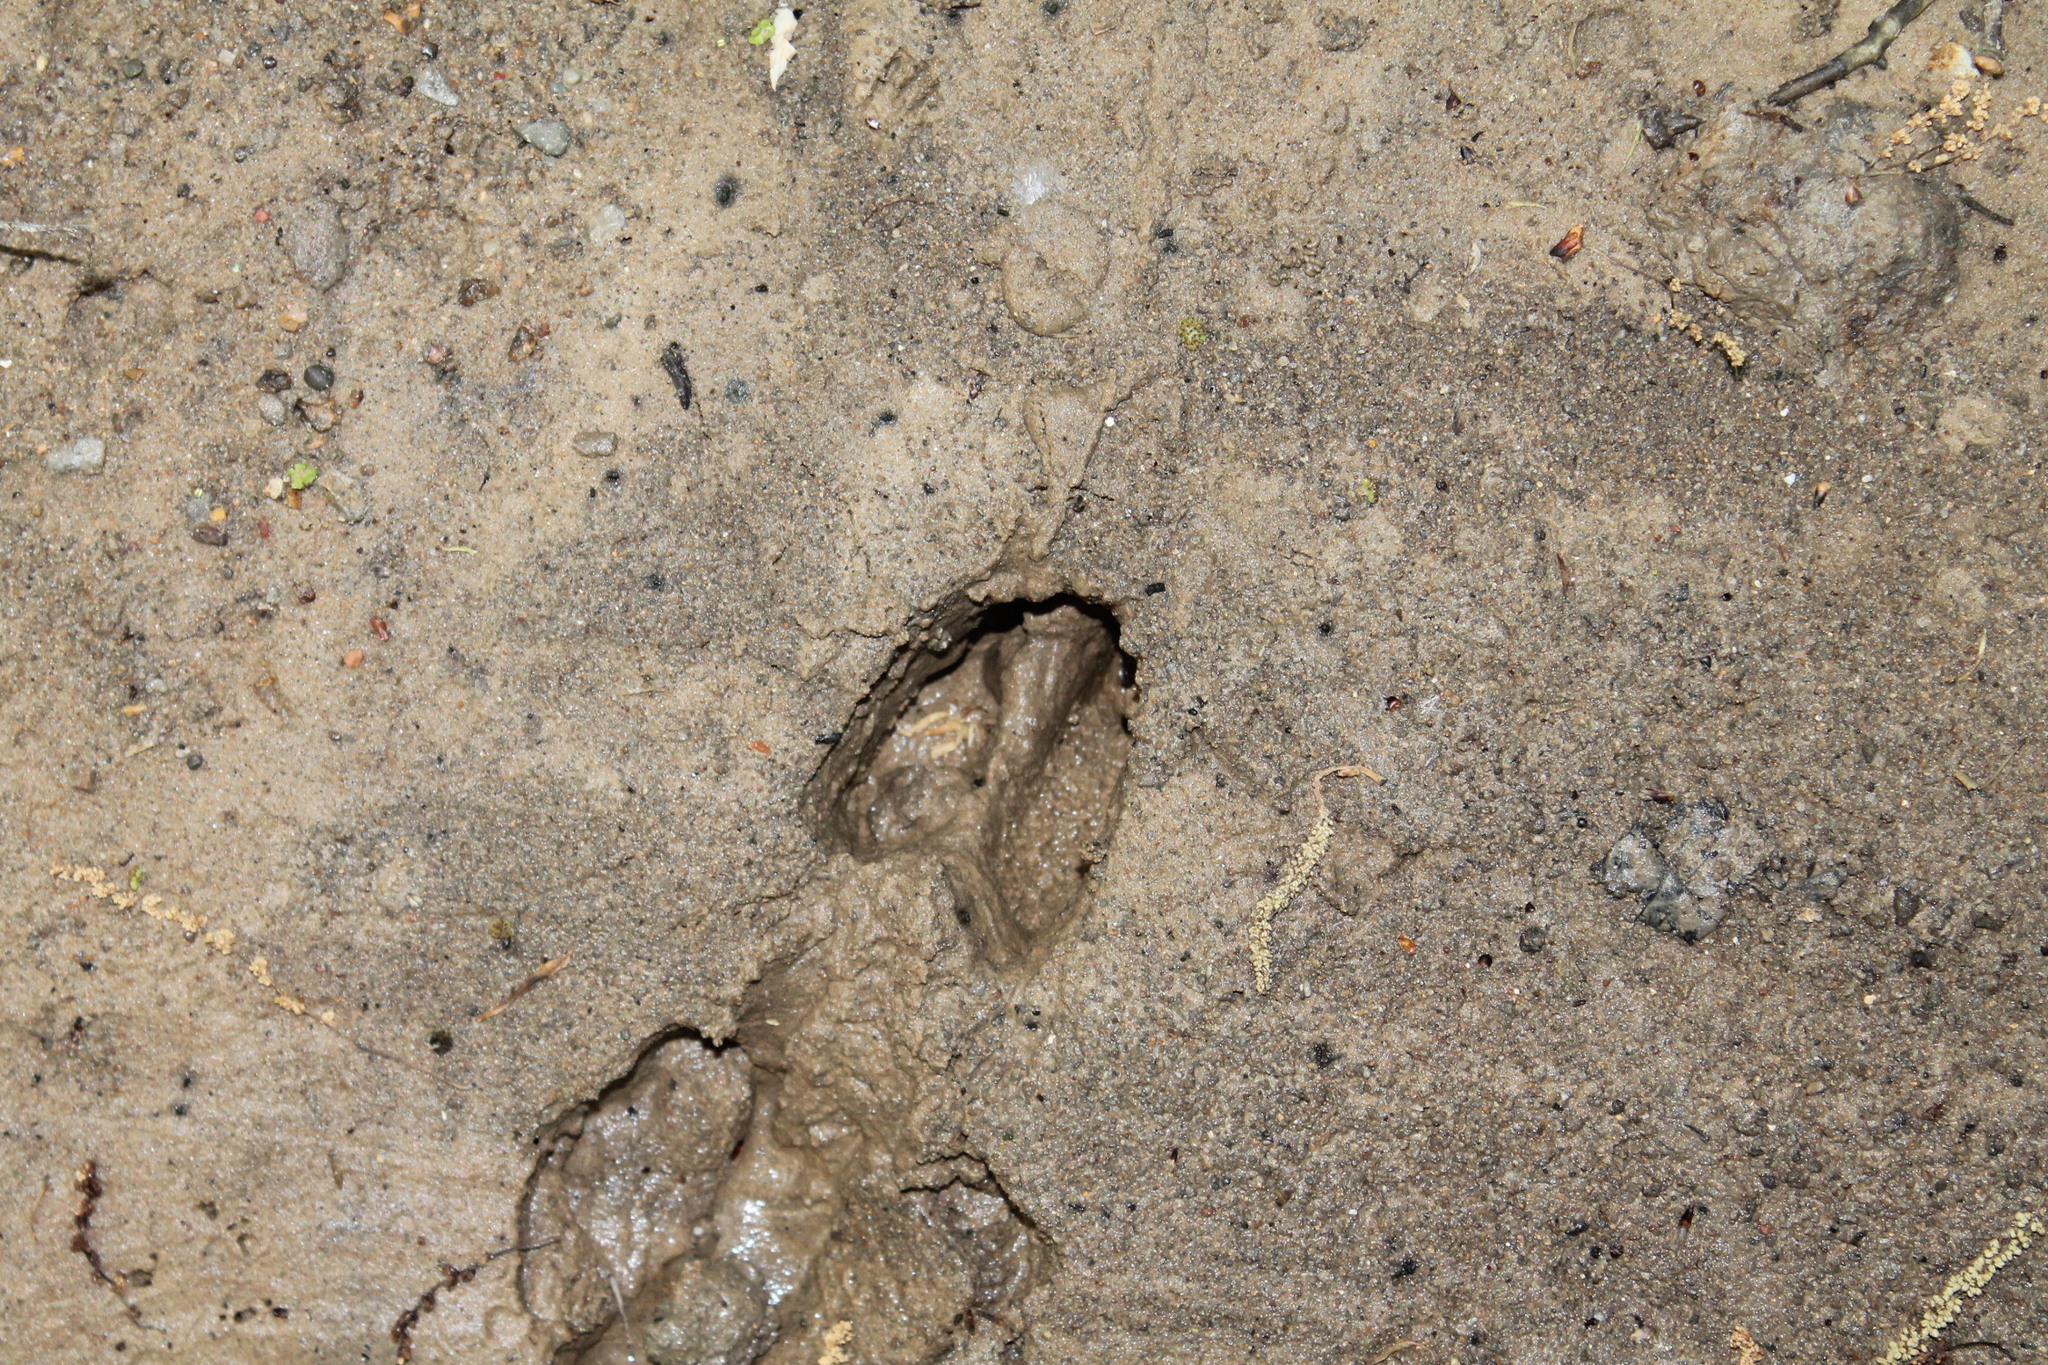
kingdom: Animalia
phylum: Chordata
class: Mammalia
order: Artiodactyla
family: Cervidae
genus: Odocoileus
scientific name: Odocoileus virginianus
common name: White-tailed deer
